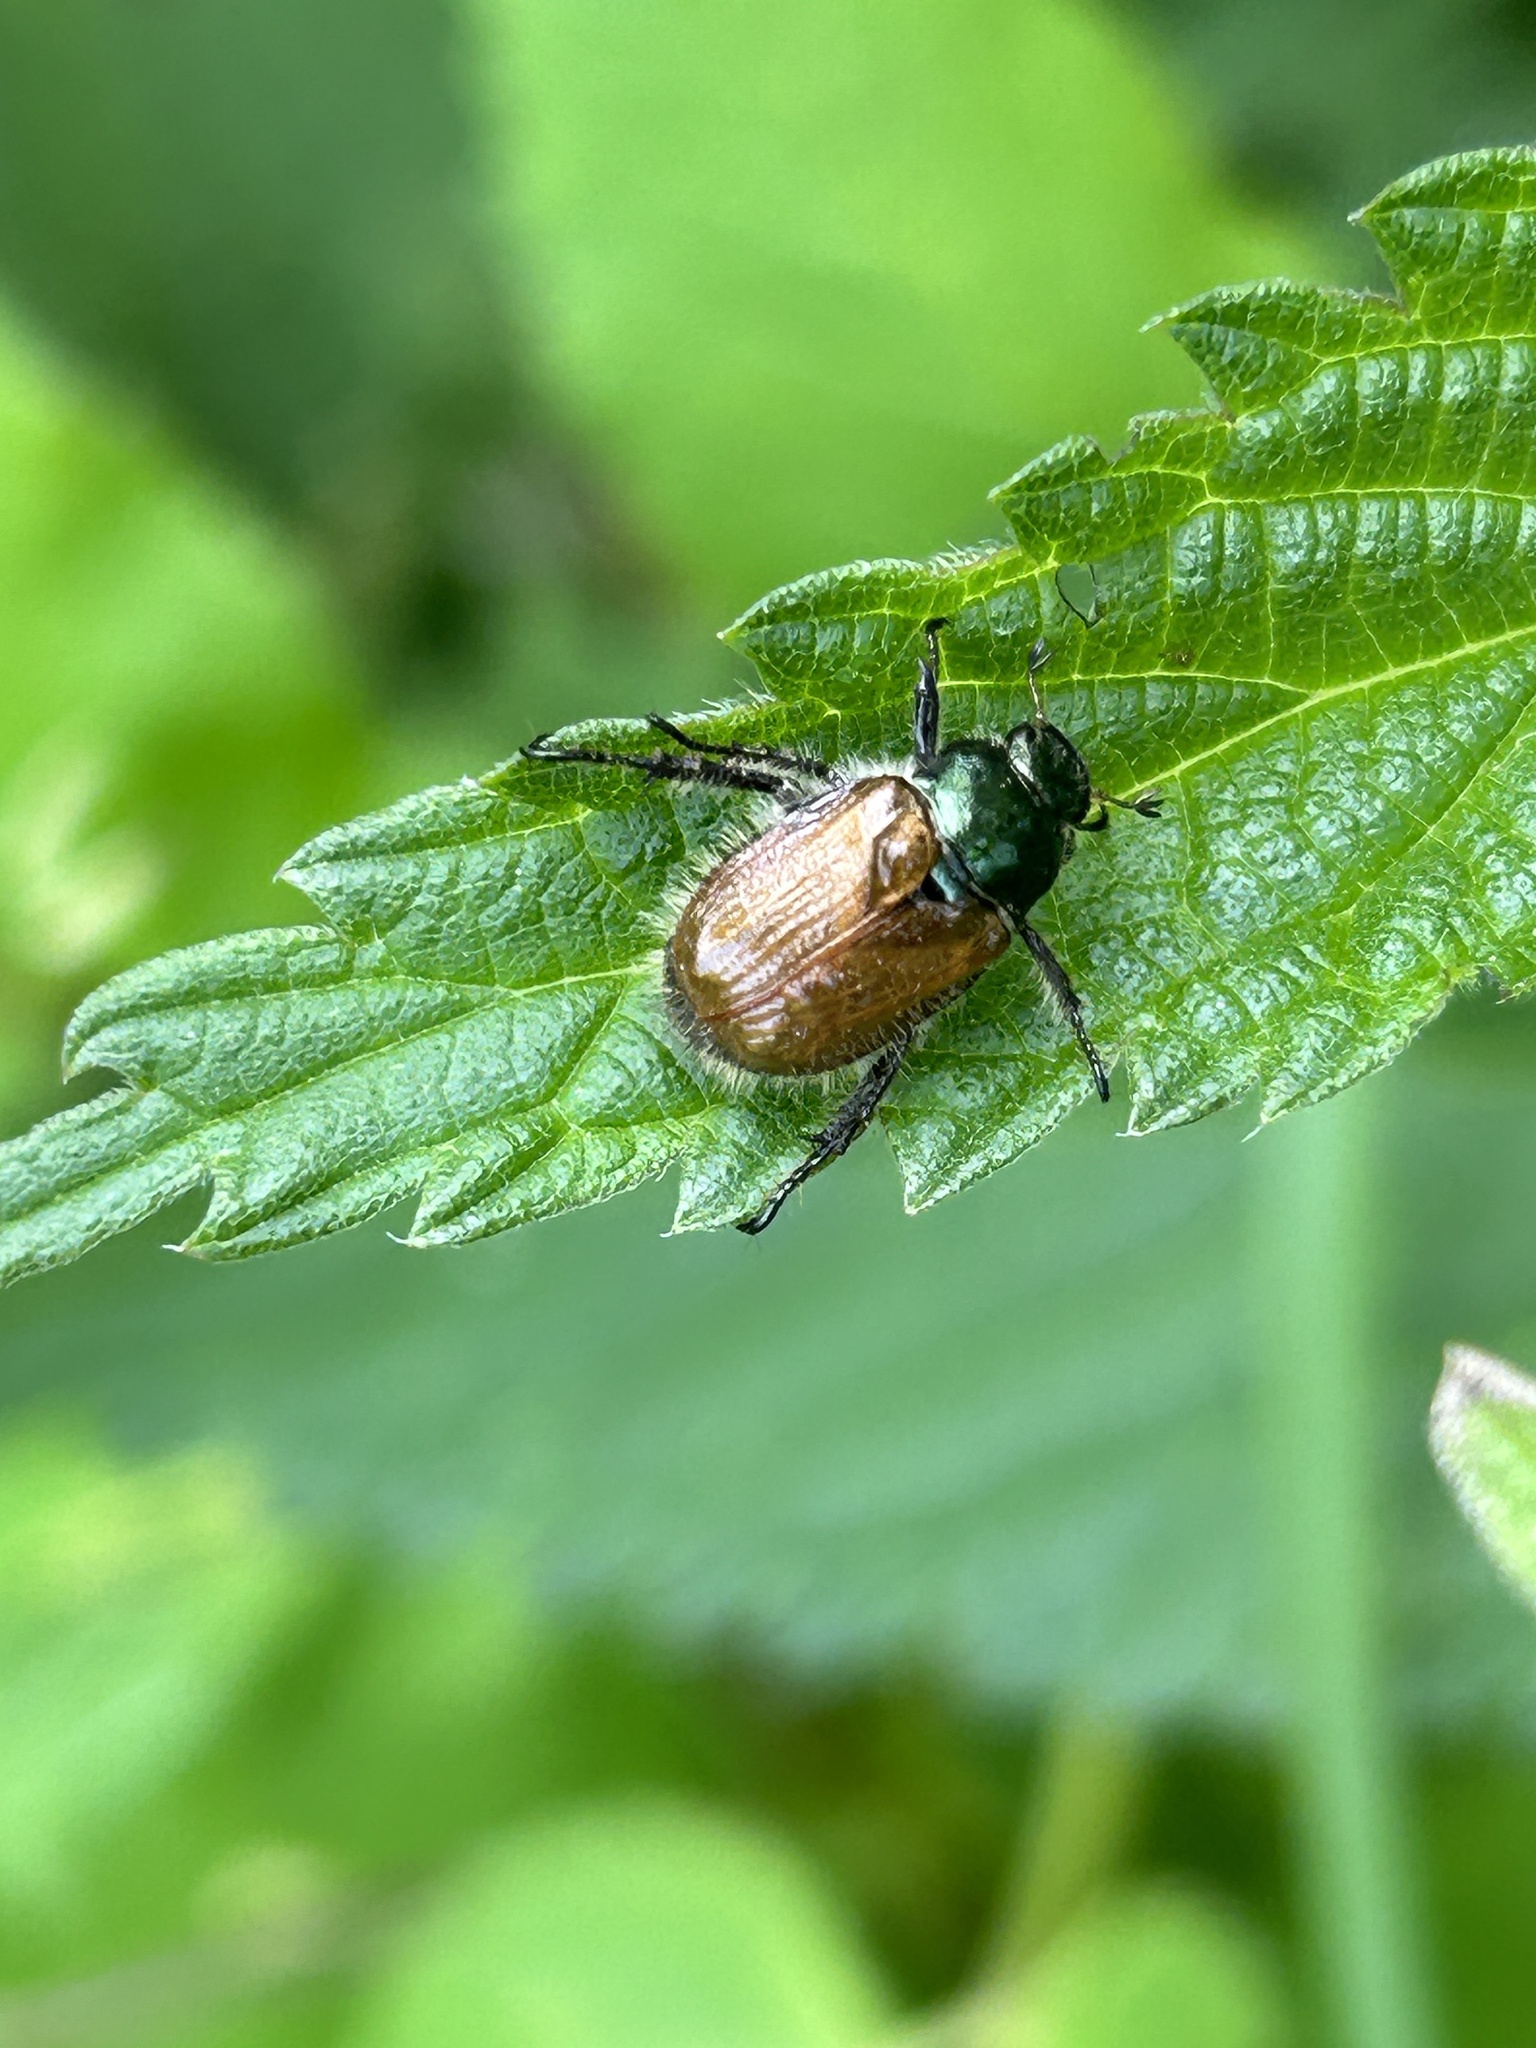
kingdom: Animalia
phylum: Arthropoda
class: Insecta
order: Coleoptera
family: Scarabaeidae
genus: Phyllopertha
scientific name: Phyllopertha horticola
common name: Garden chafer
